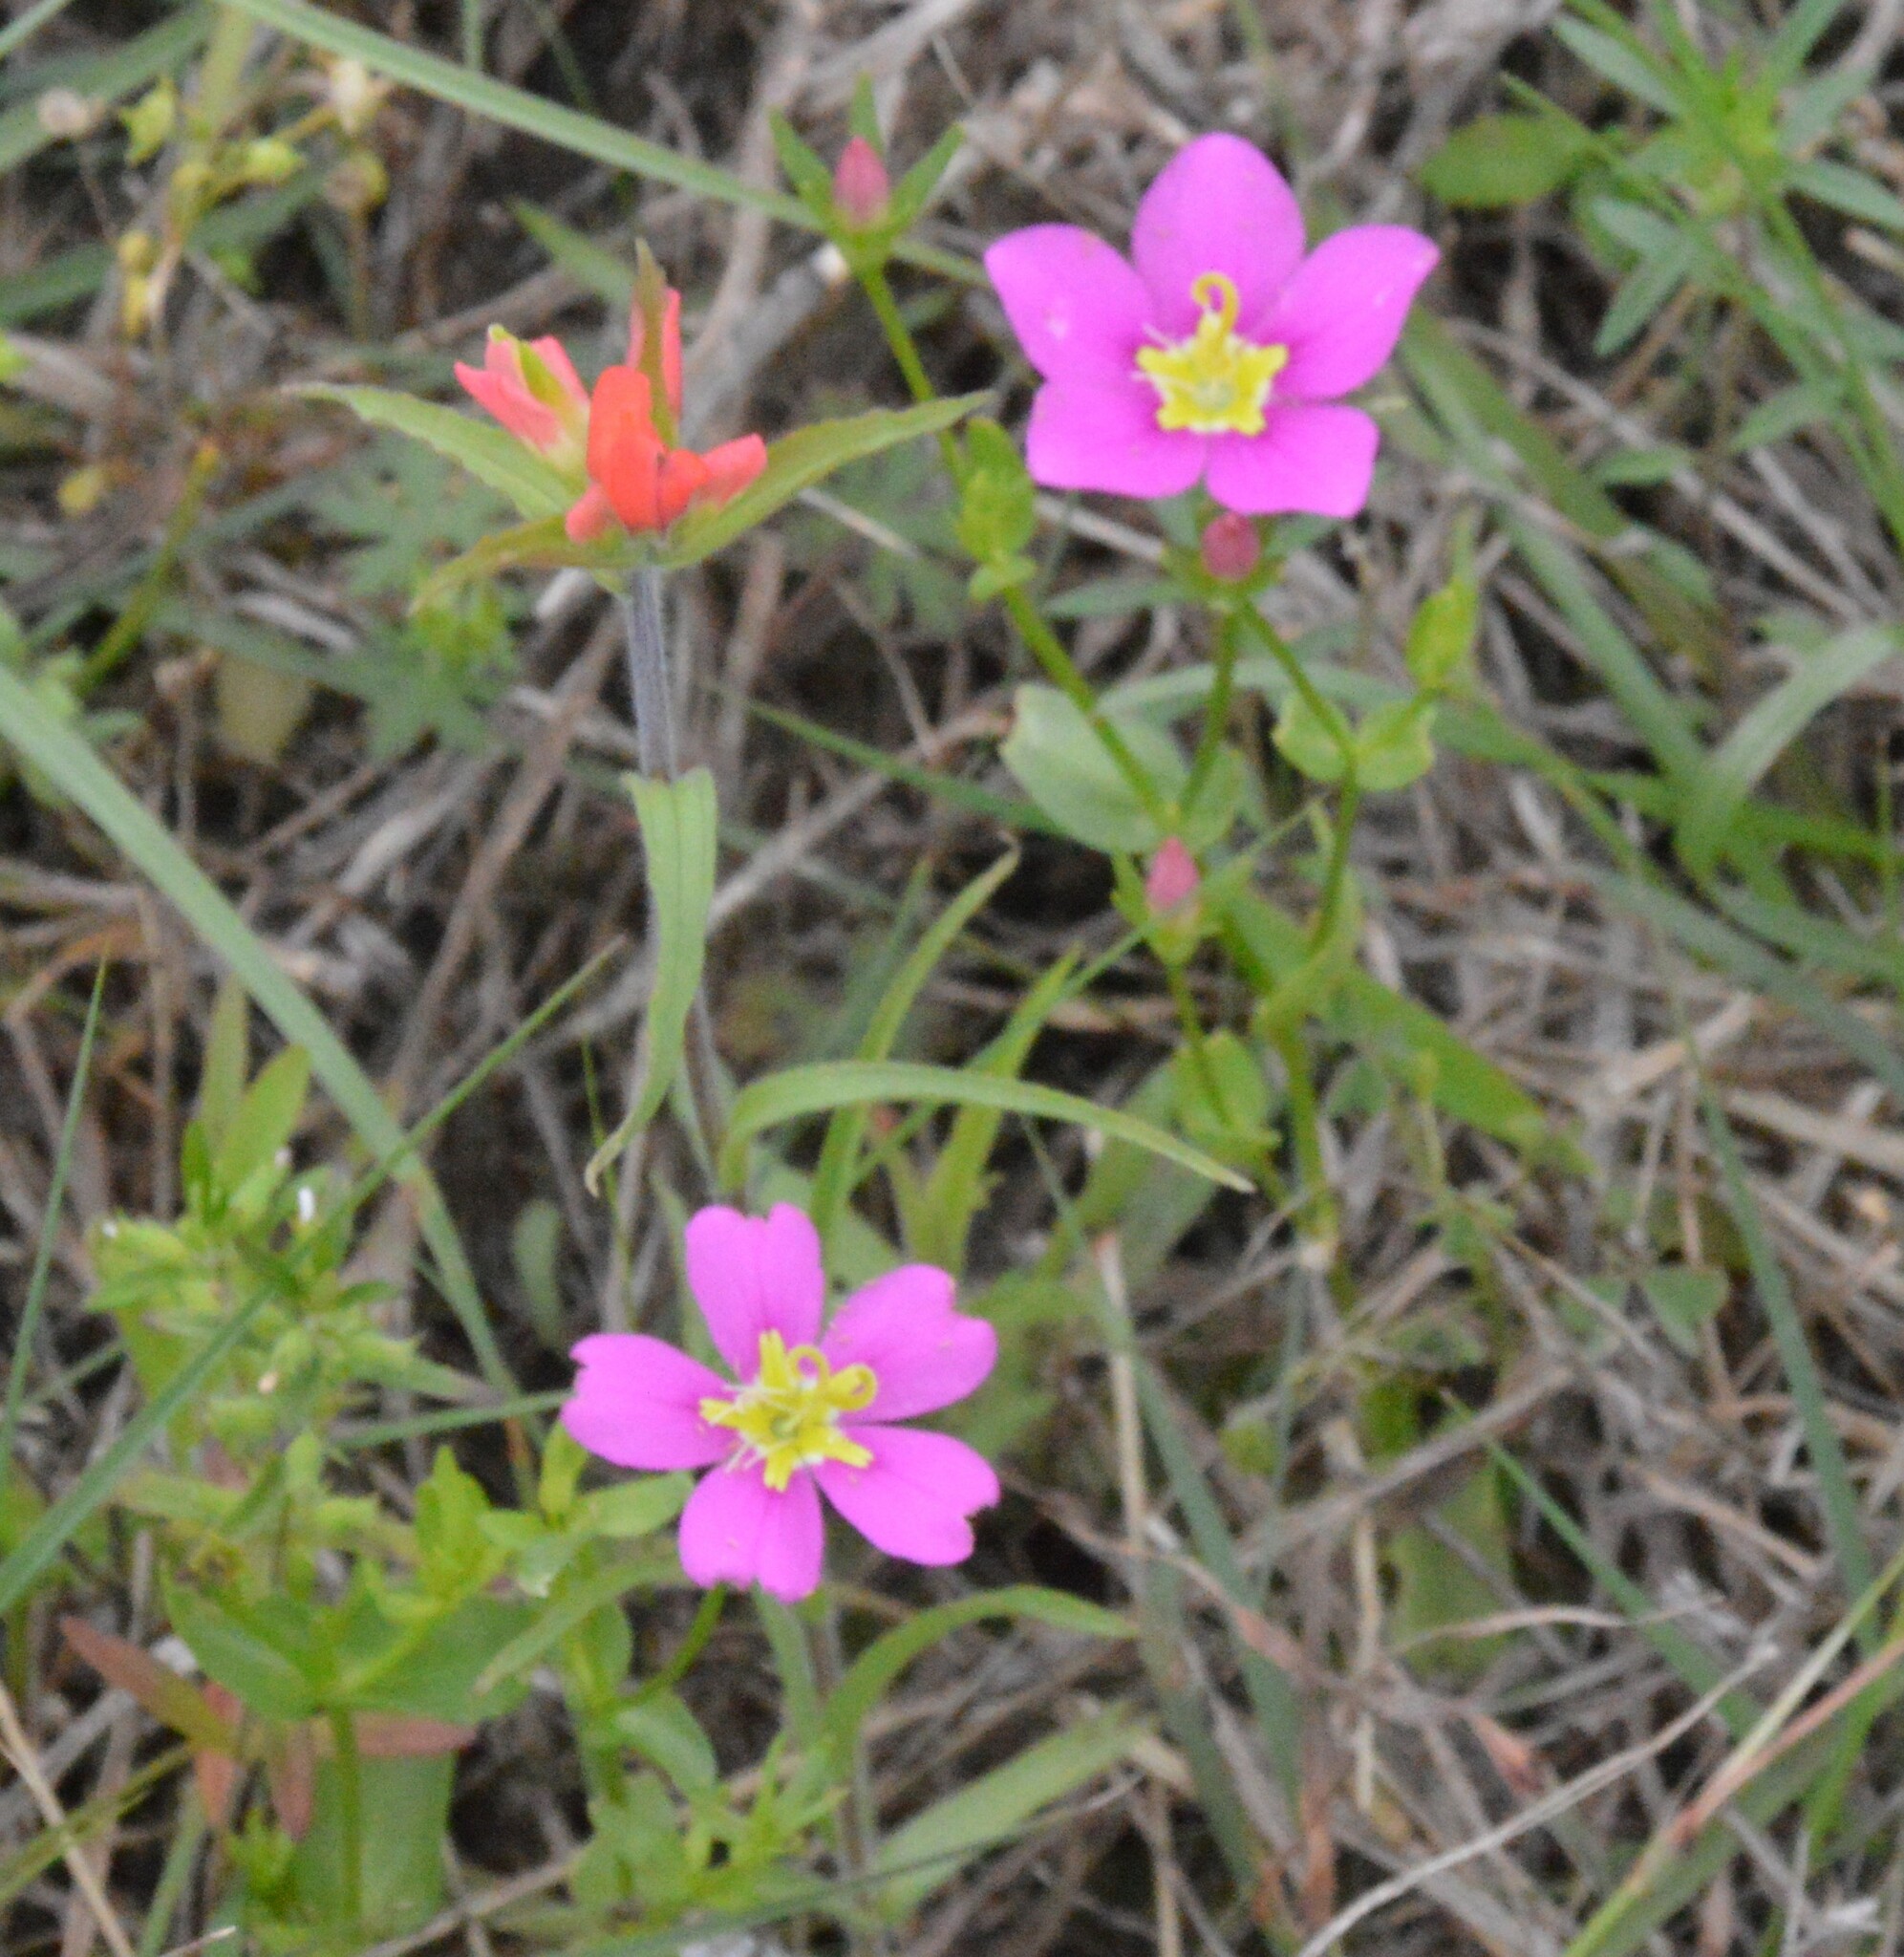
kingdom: Plantae
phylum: Tracheophyta
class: Magnoliopsida
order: Gentianales
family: Gentianaceae
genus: Sabatia
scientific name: Sabatia campestris
